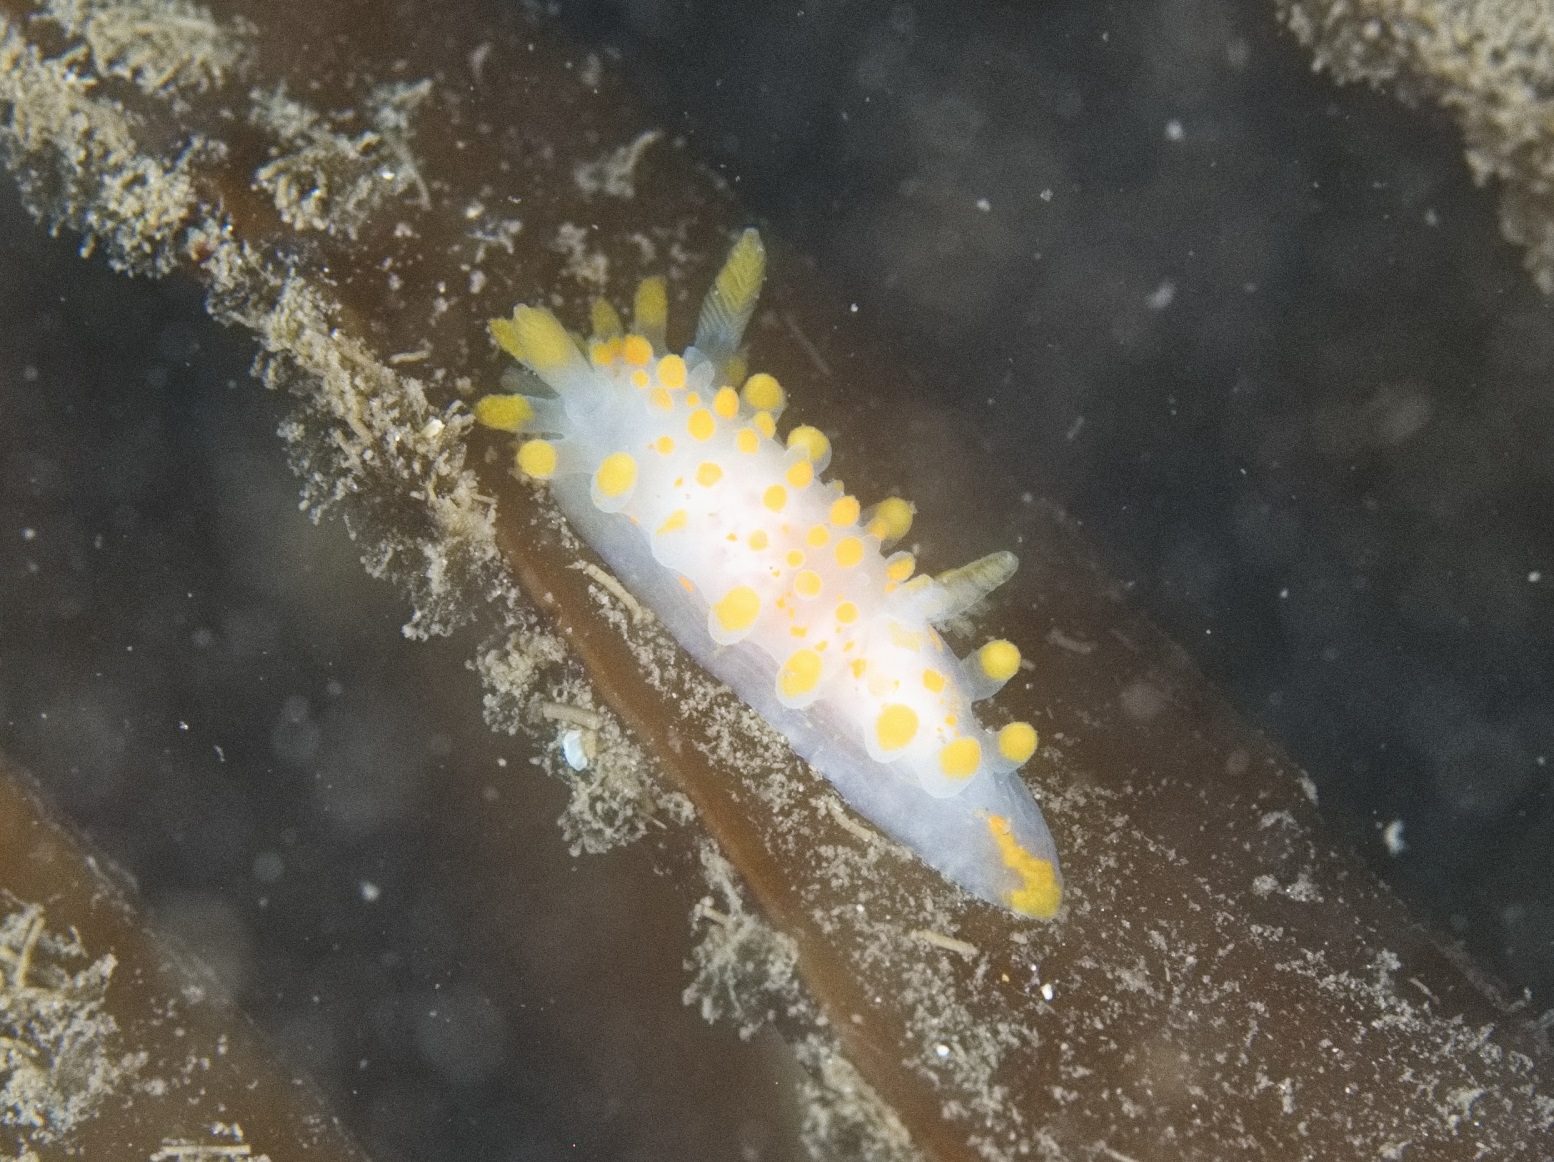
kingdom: Animalia
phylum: Mollusca
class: Gastropoda
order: Nudibranchia
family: Polyceridae
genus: Limacia
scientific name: Limacia clavigera
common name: Orange-clubbed sea slug
